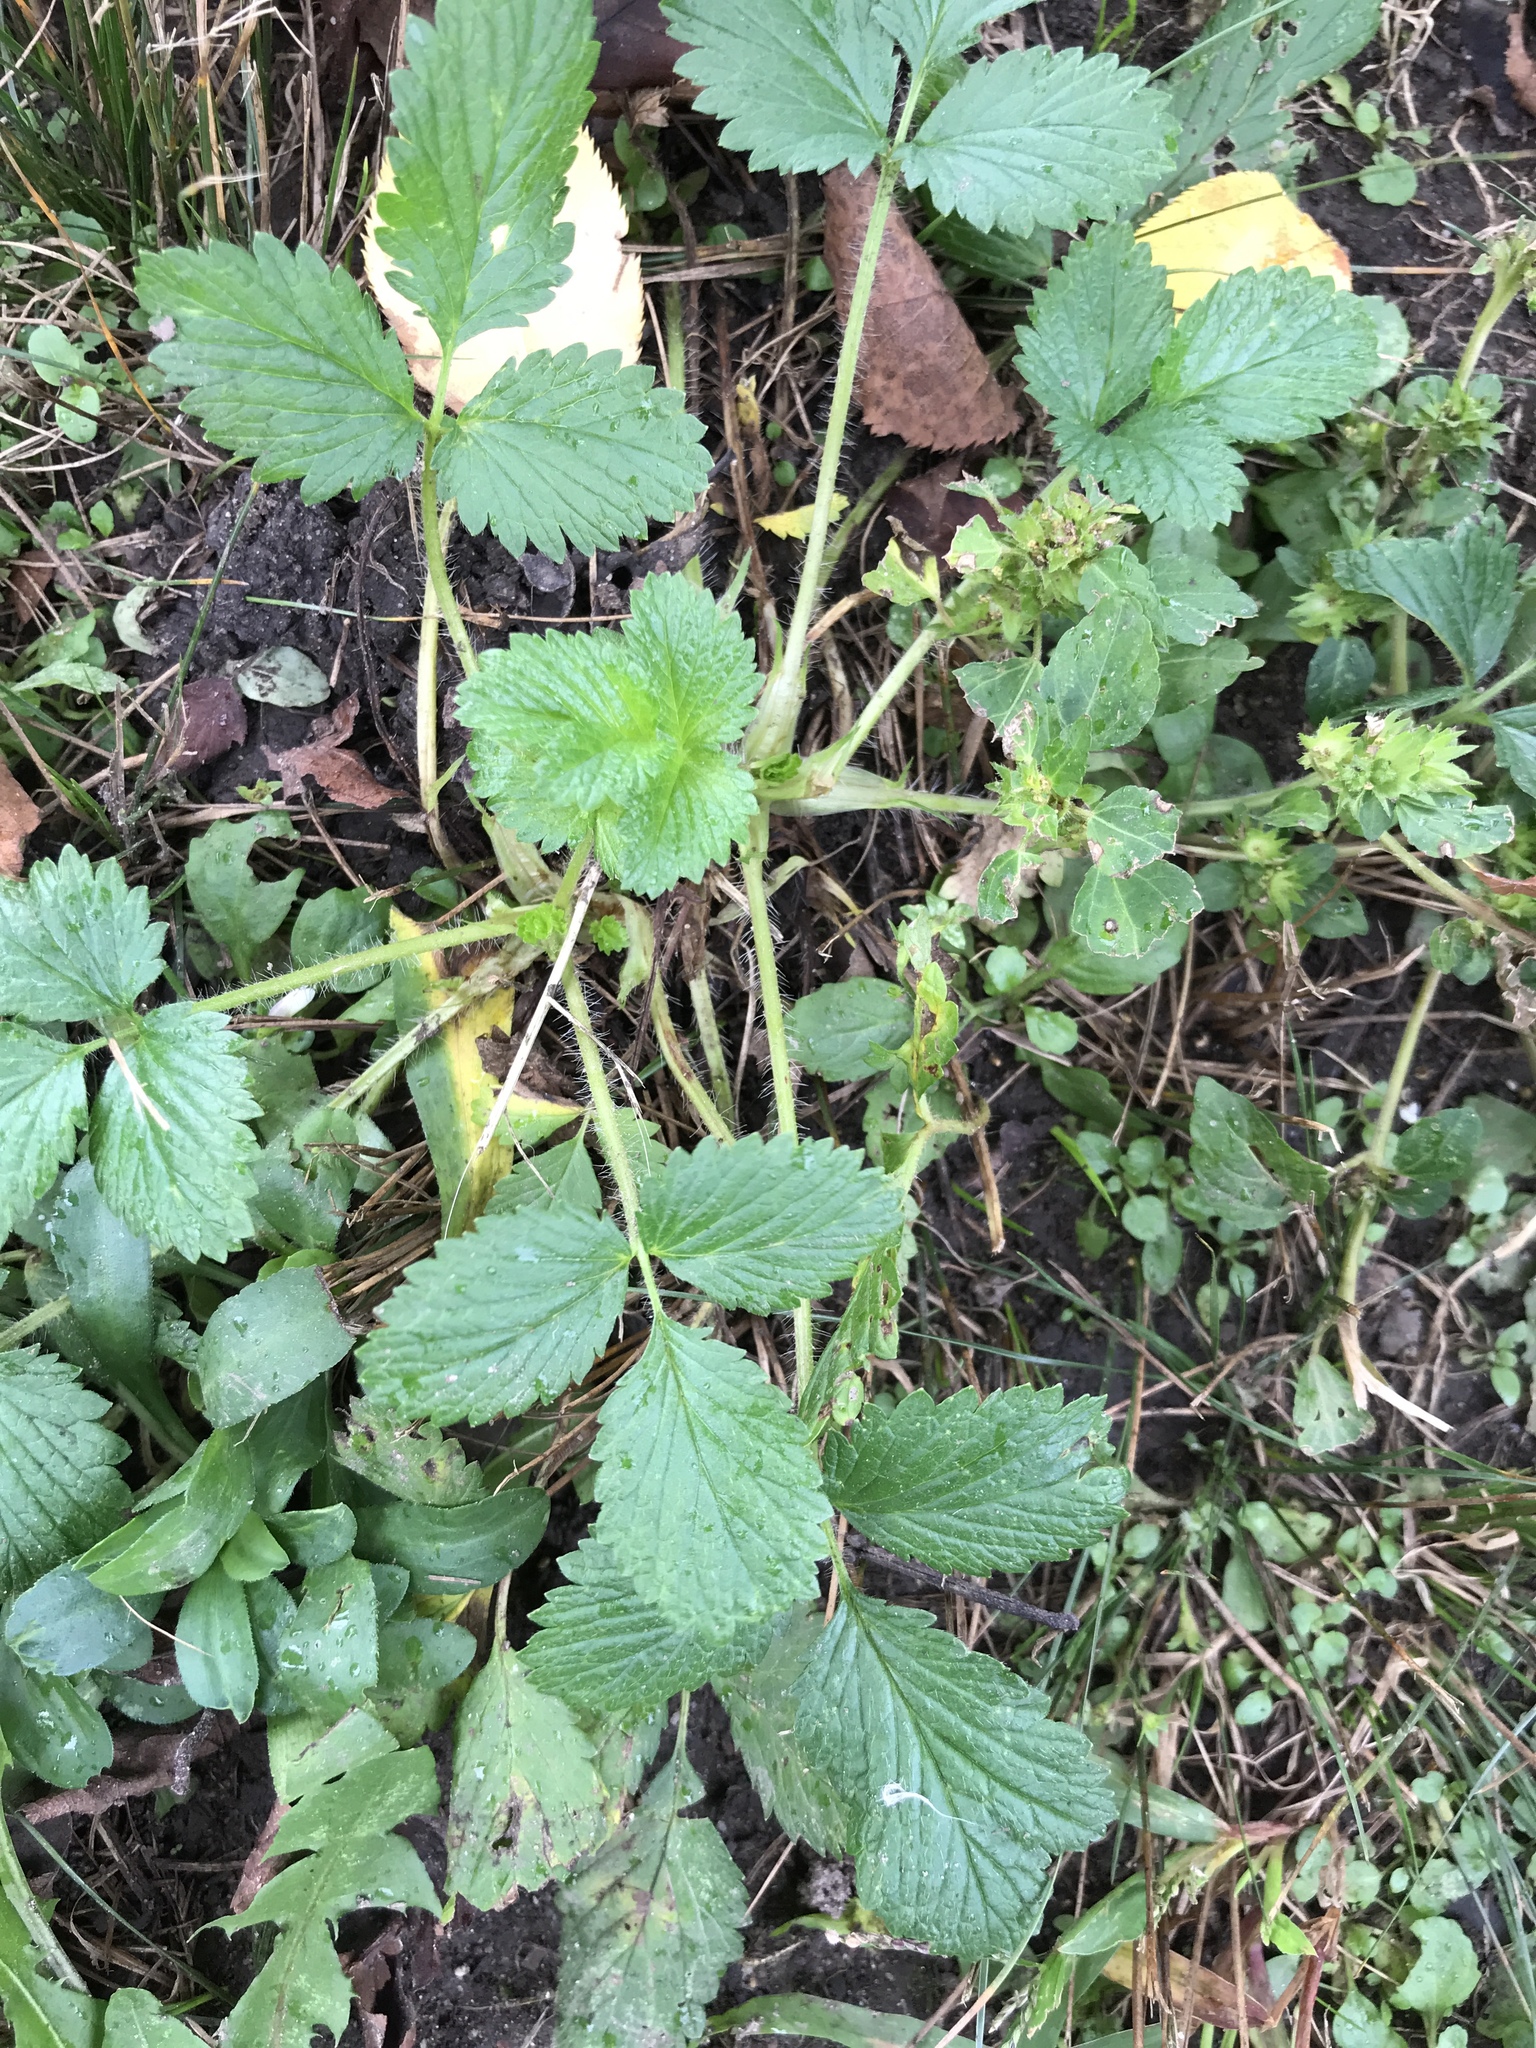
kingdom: Plantae
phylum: Tracheophyta
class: Magnoliopsida
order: Rosales
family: Rosaceae
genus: Potentilla
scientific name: Potentilla indica
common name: Yellow-flowered strawberry
